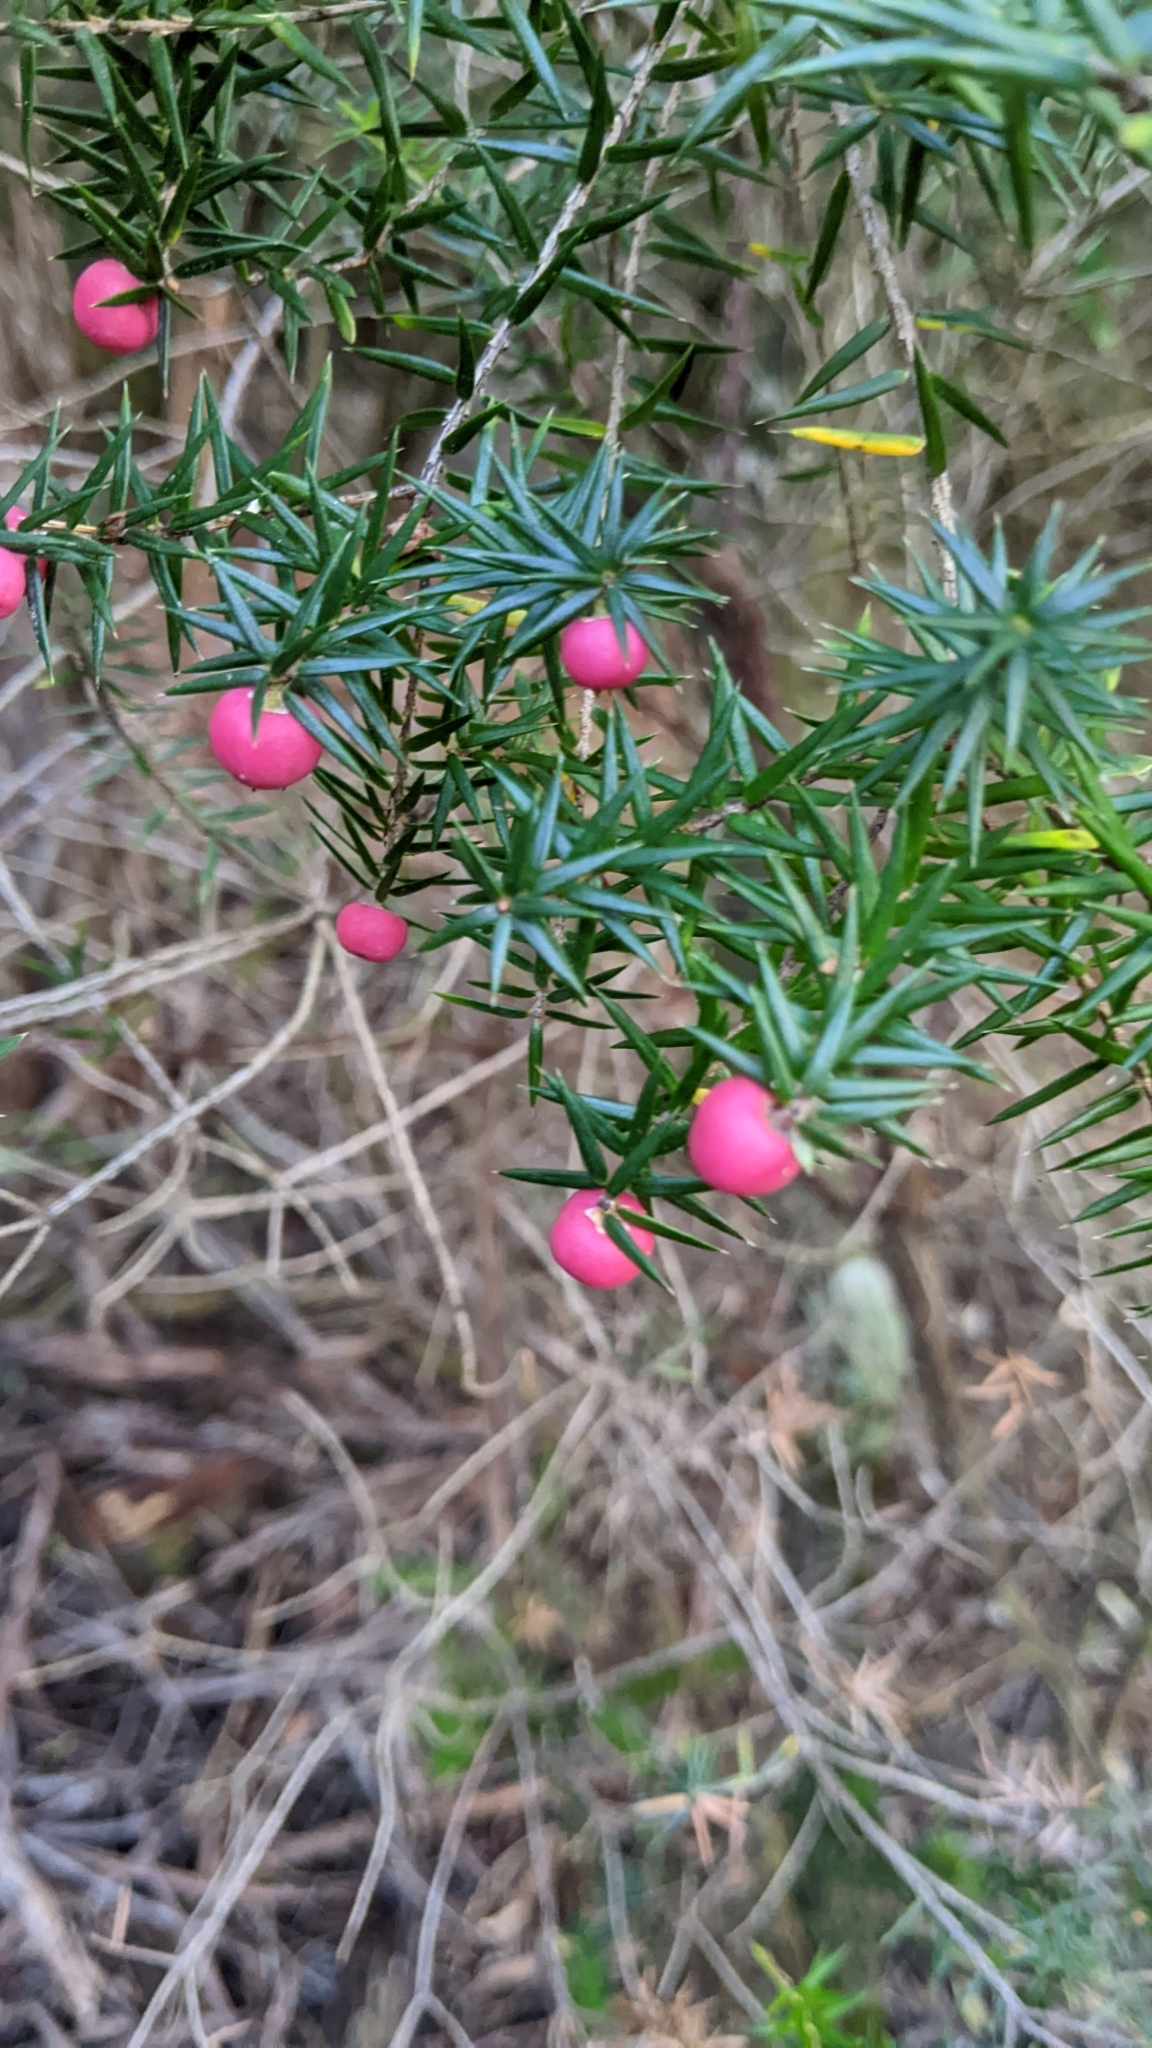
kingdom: Plantae
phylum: Tracheophyta
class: Magnoliopsida
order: Ericales
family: Ericaceae
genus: Leptecophylla
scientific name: Leptecophylla oxycedrus
